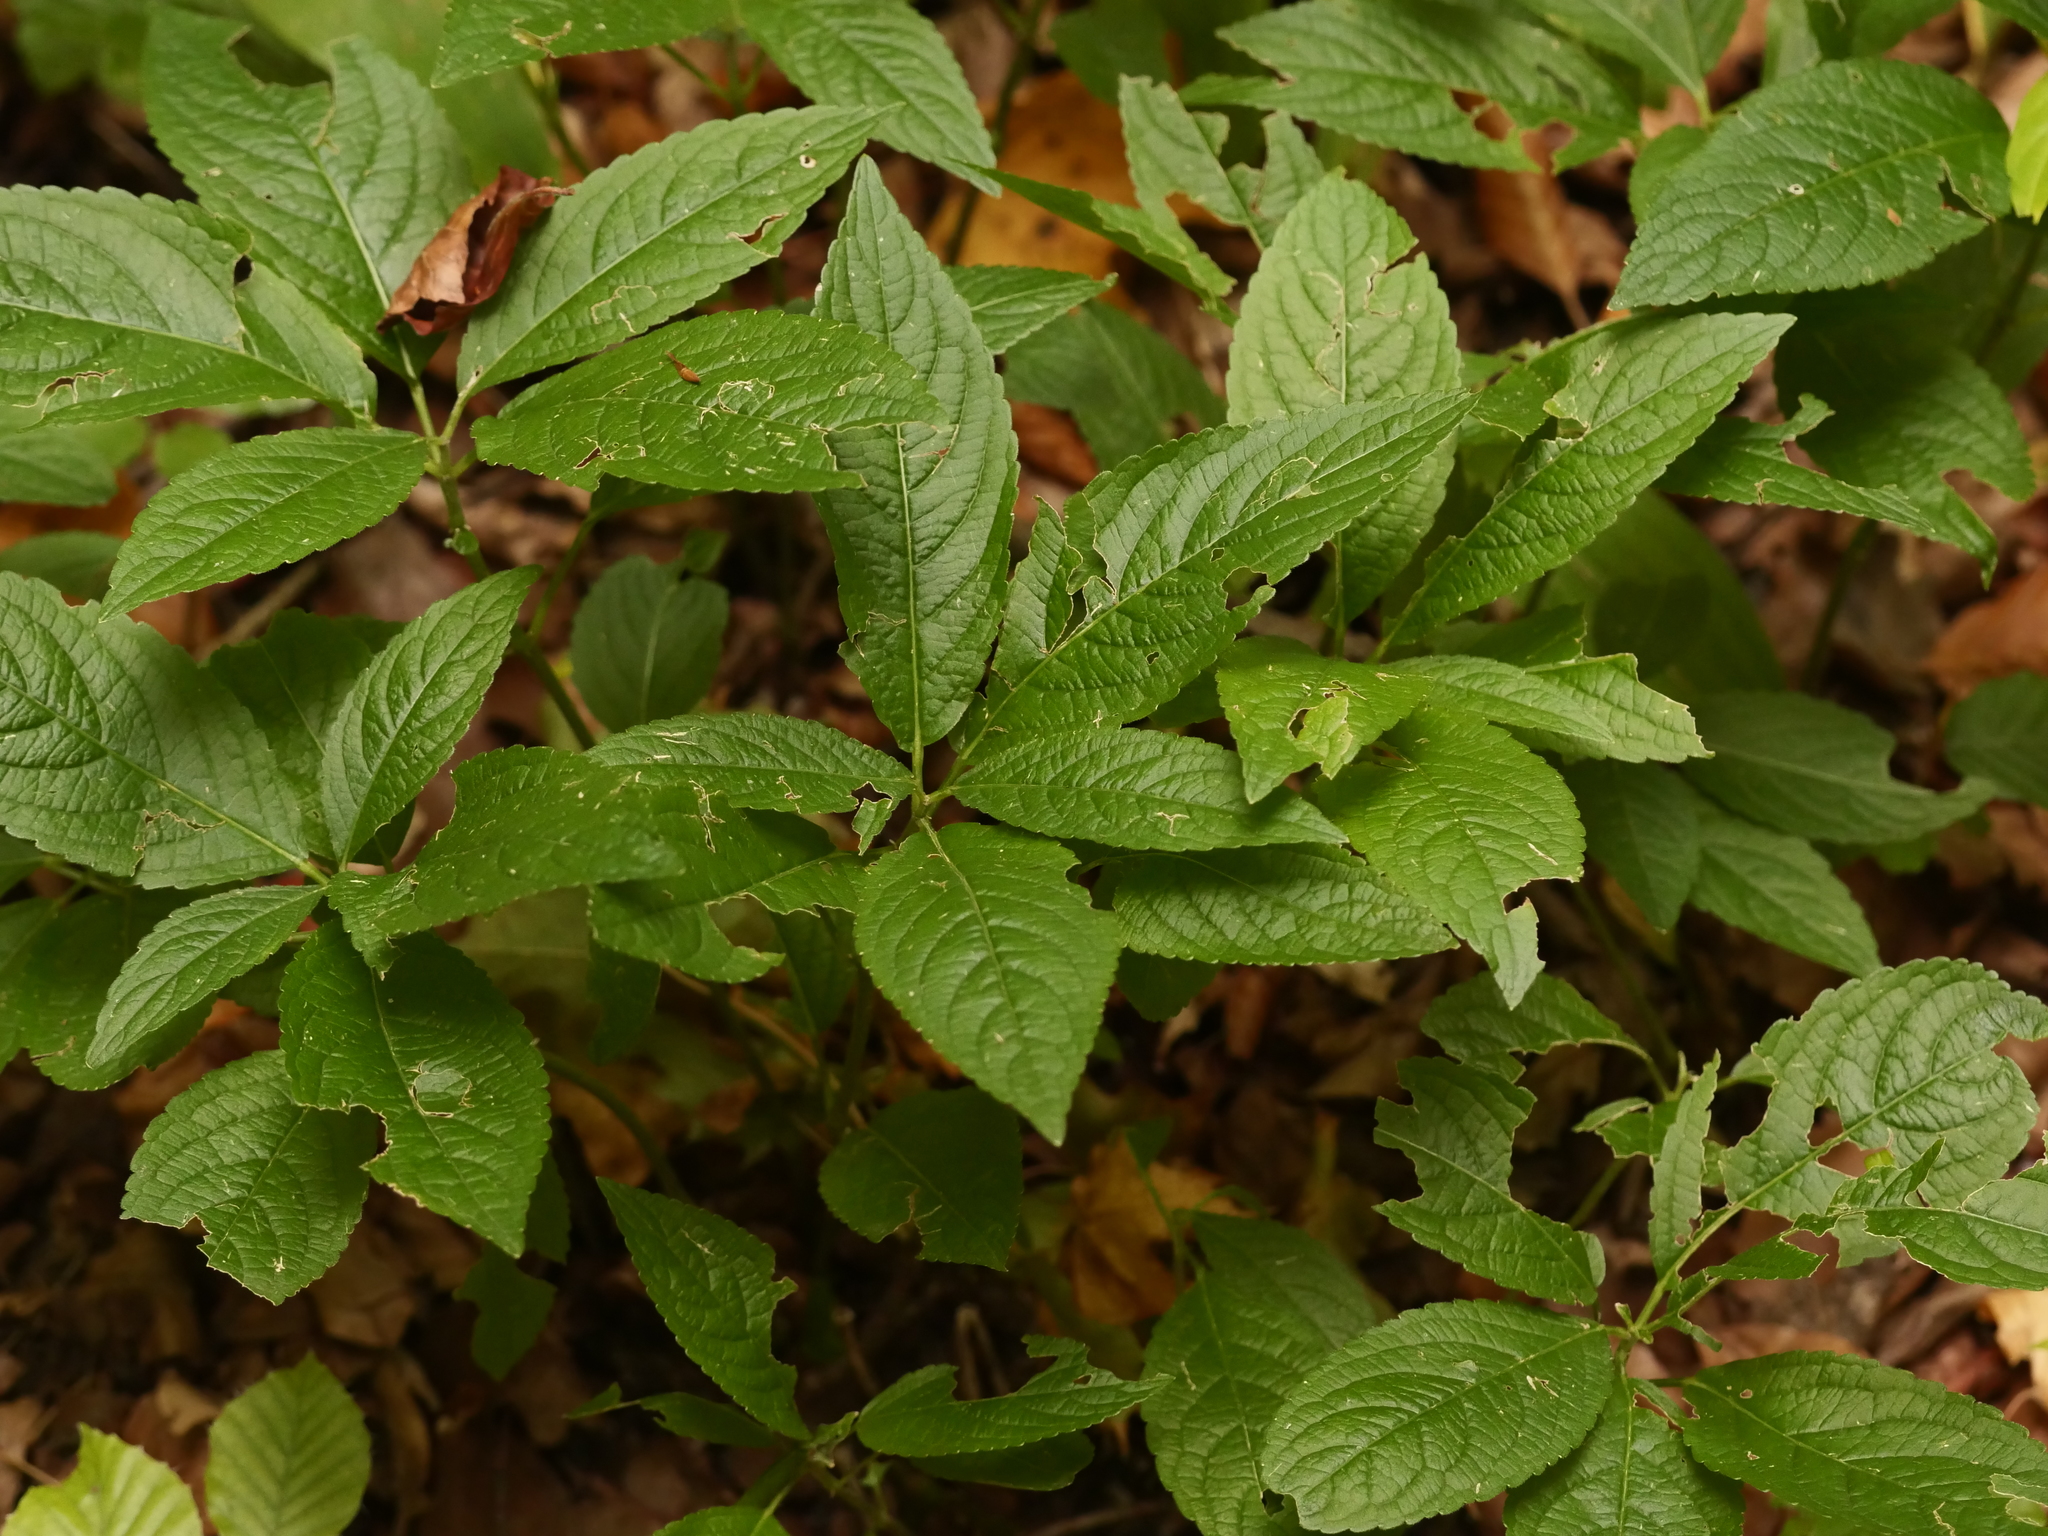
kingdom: Plantae
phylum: Tracheophyta
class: Magnoliopsida
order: Malpighiales
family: Euphorbiaceae
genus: Mercurialis
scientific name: Mercurialis perennis
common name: Dog mercury
